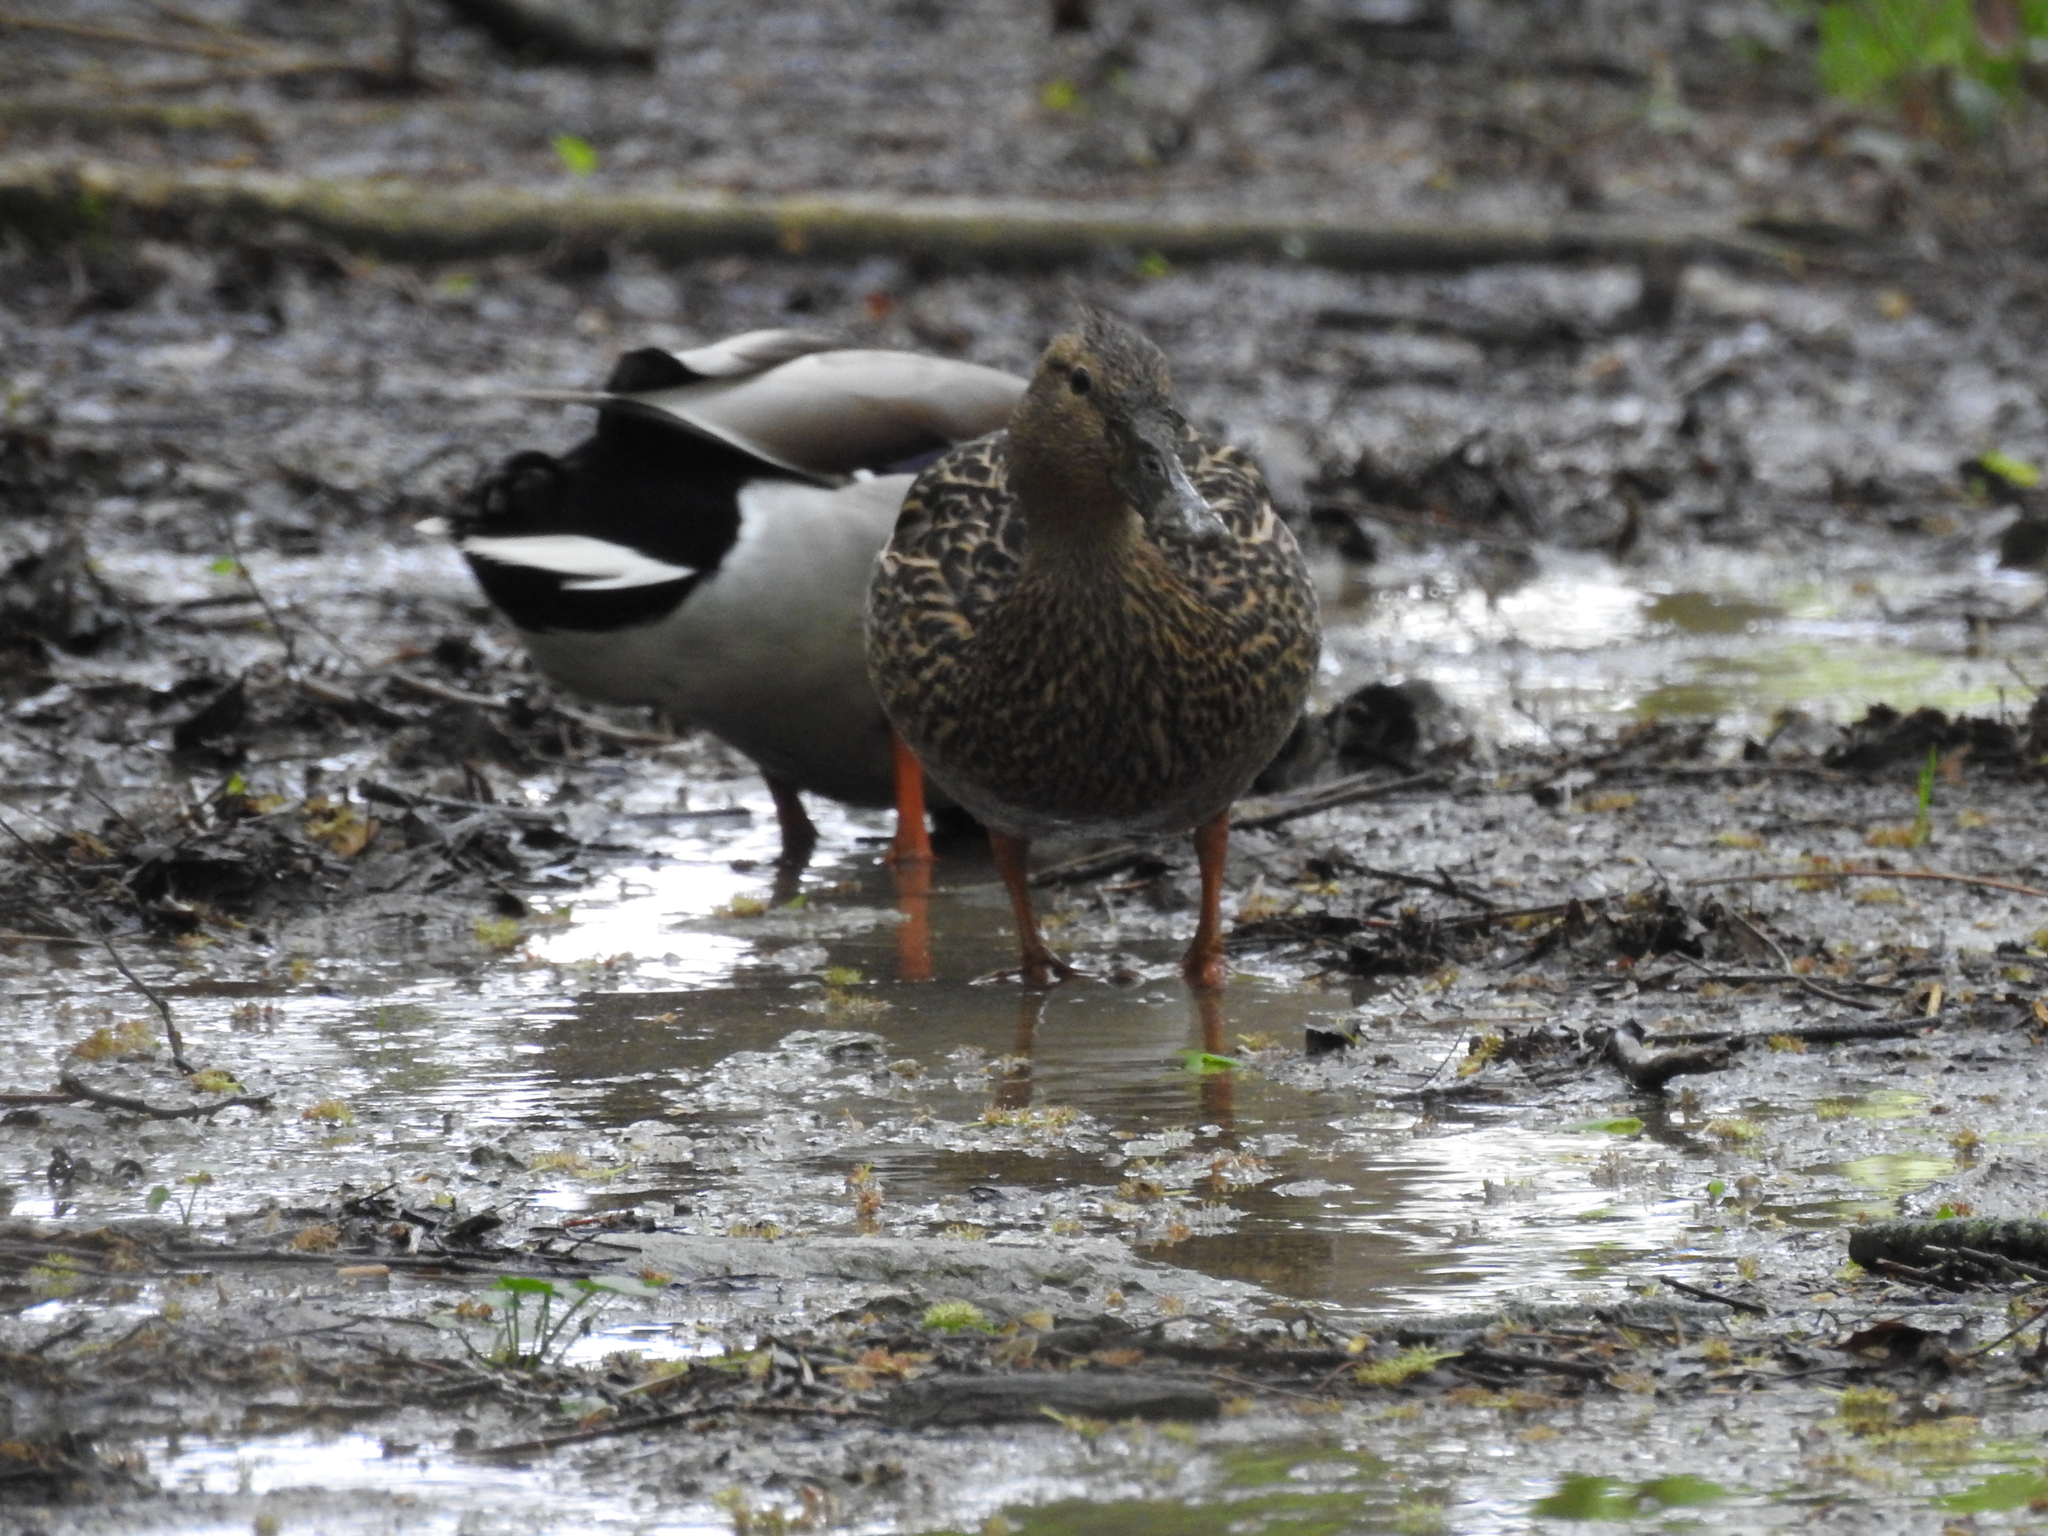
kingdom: Animalia
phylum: Chordata
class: Aves
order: Anseriformes
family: Anatidae
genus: Anas
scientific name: Anas platyrhynchos
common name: Mallard
